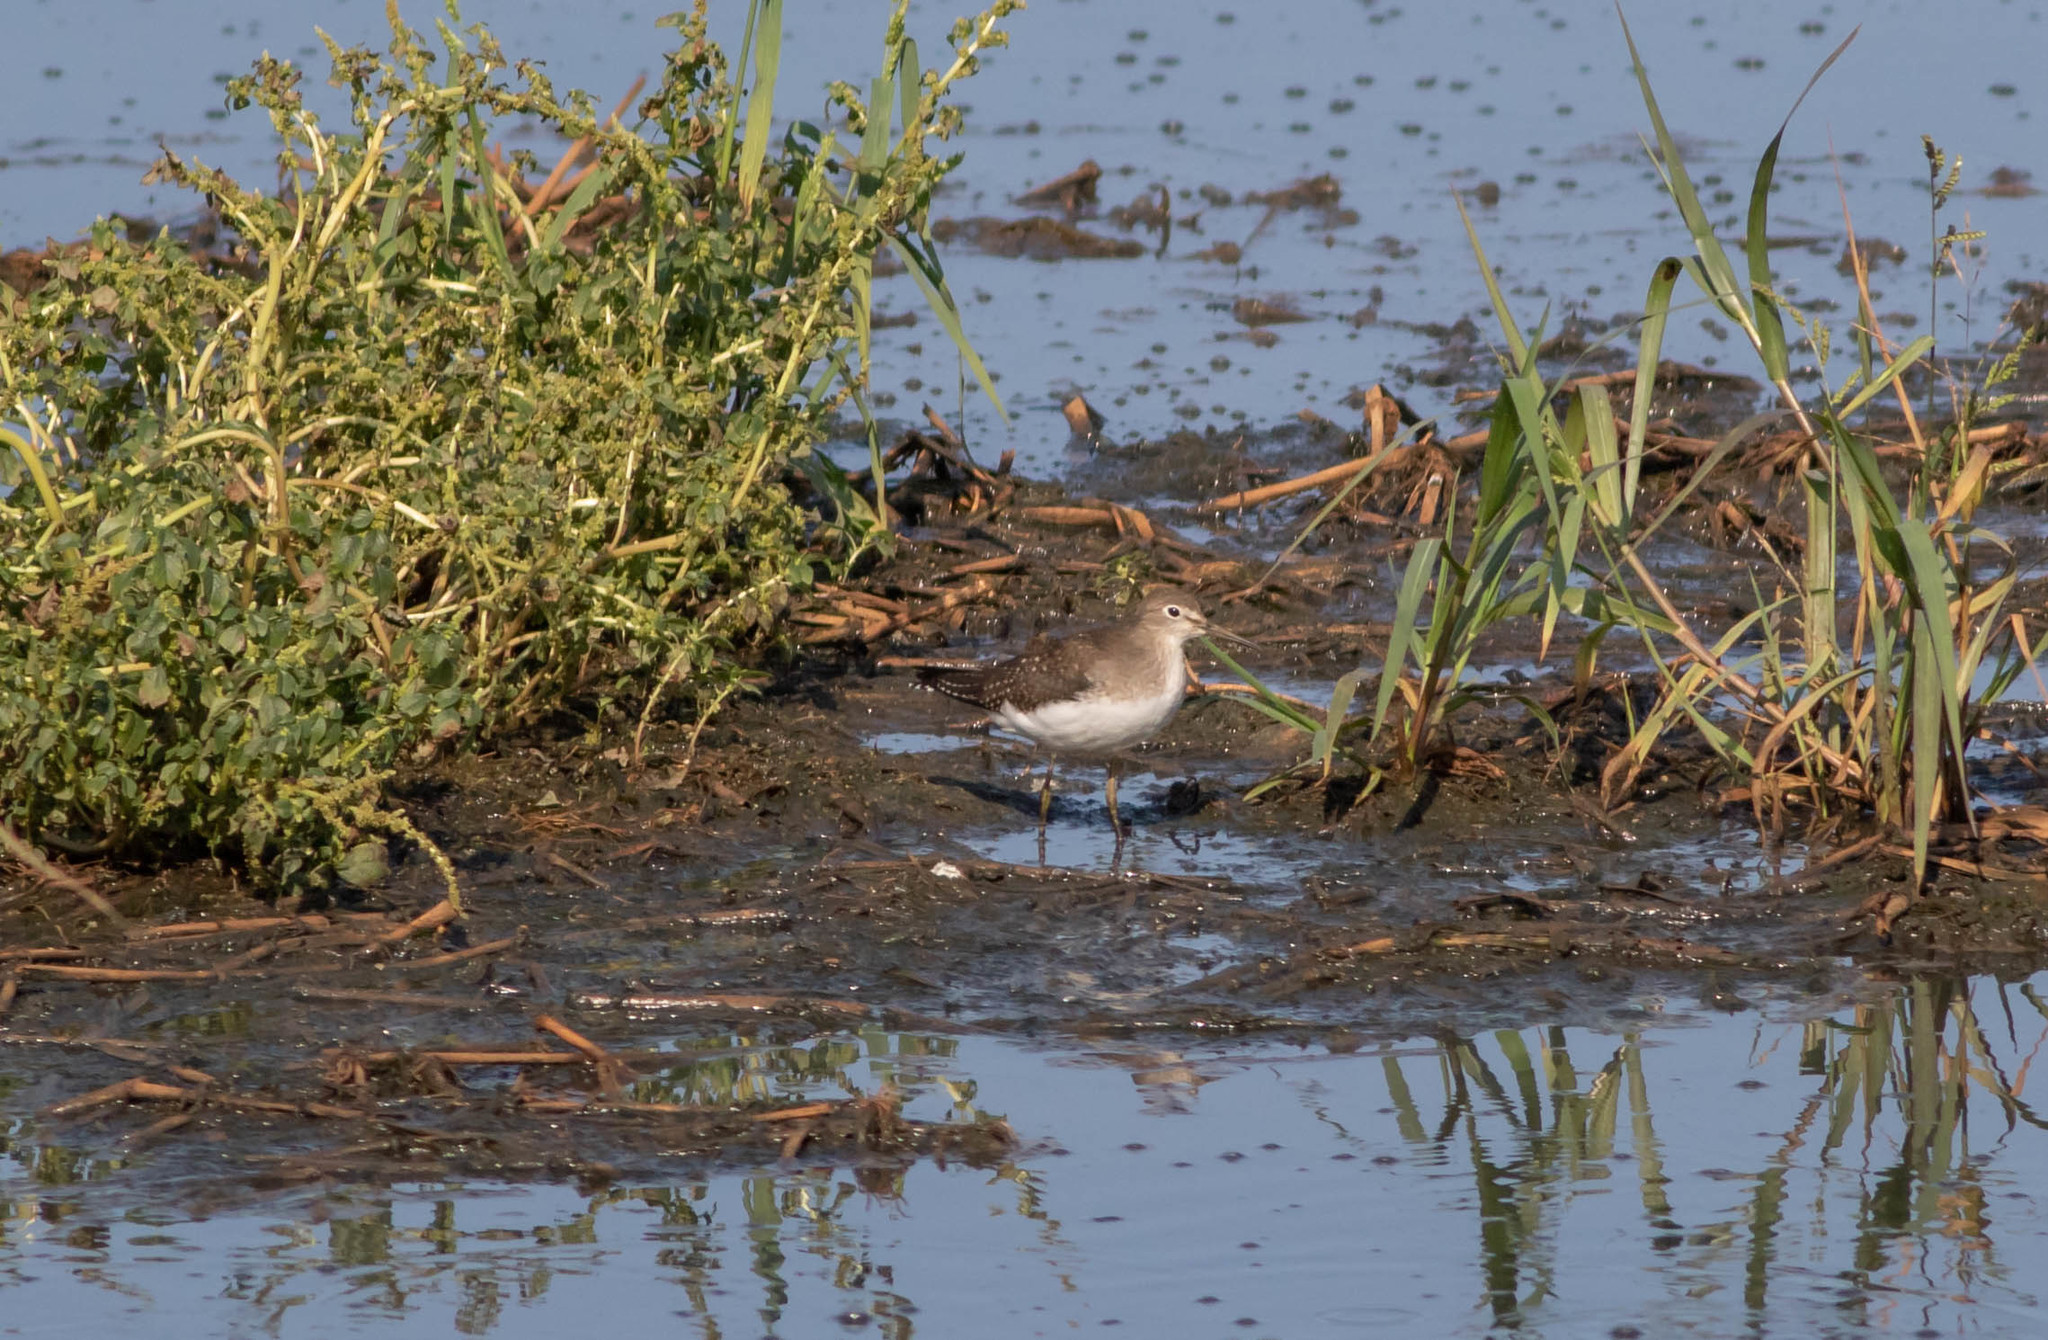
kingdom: Animalia
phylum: Chordata
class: Aves
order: Charadriiformes
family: Scolopacidae
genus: Tringa
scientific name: Tringa solitaria
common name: Solitary sandpiper
